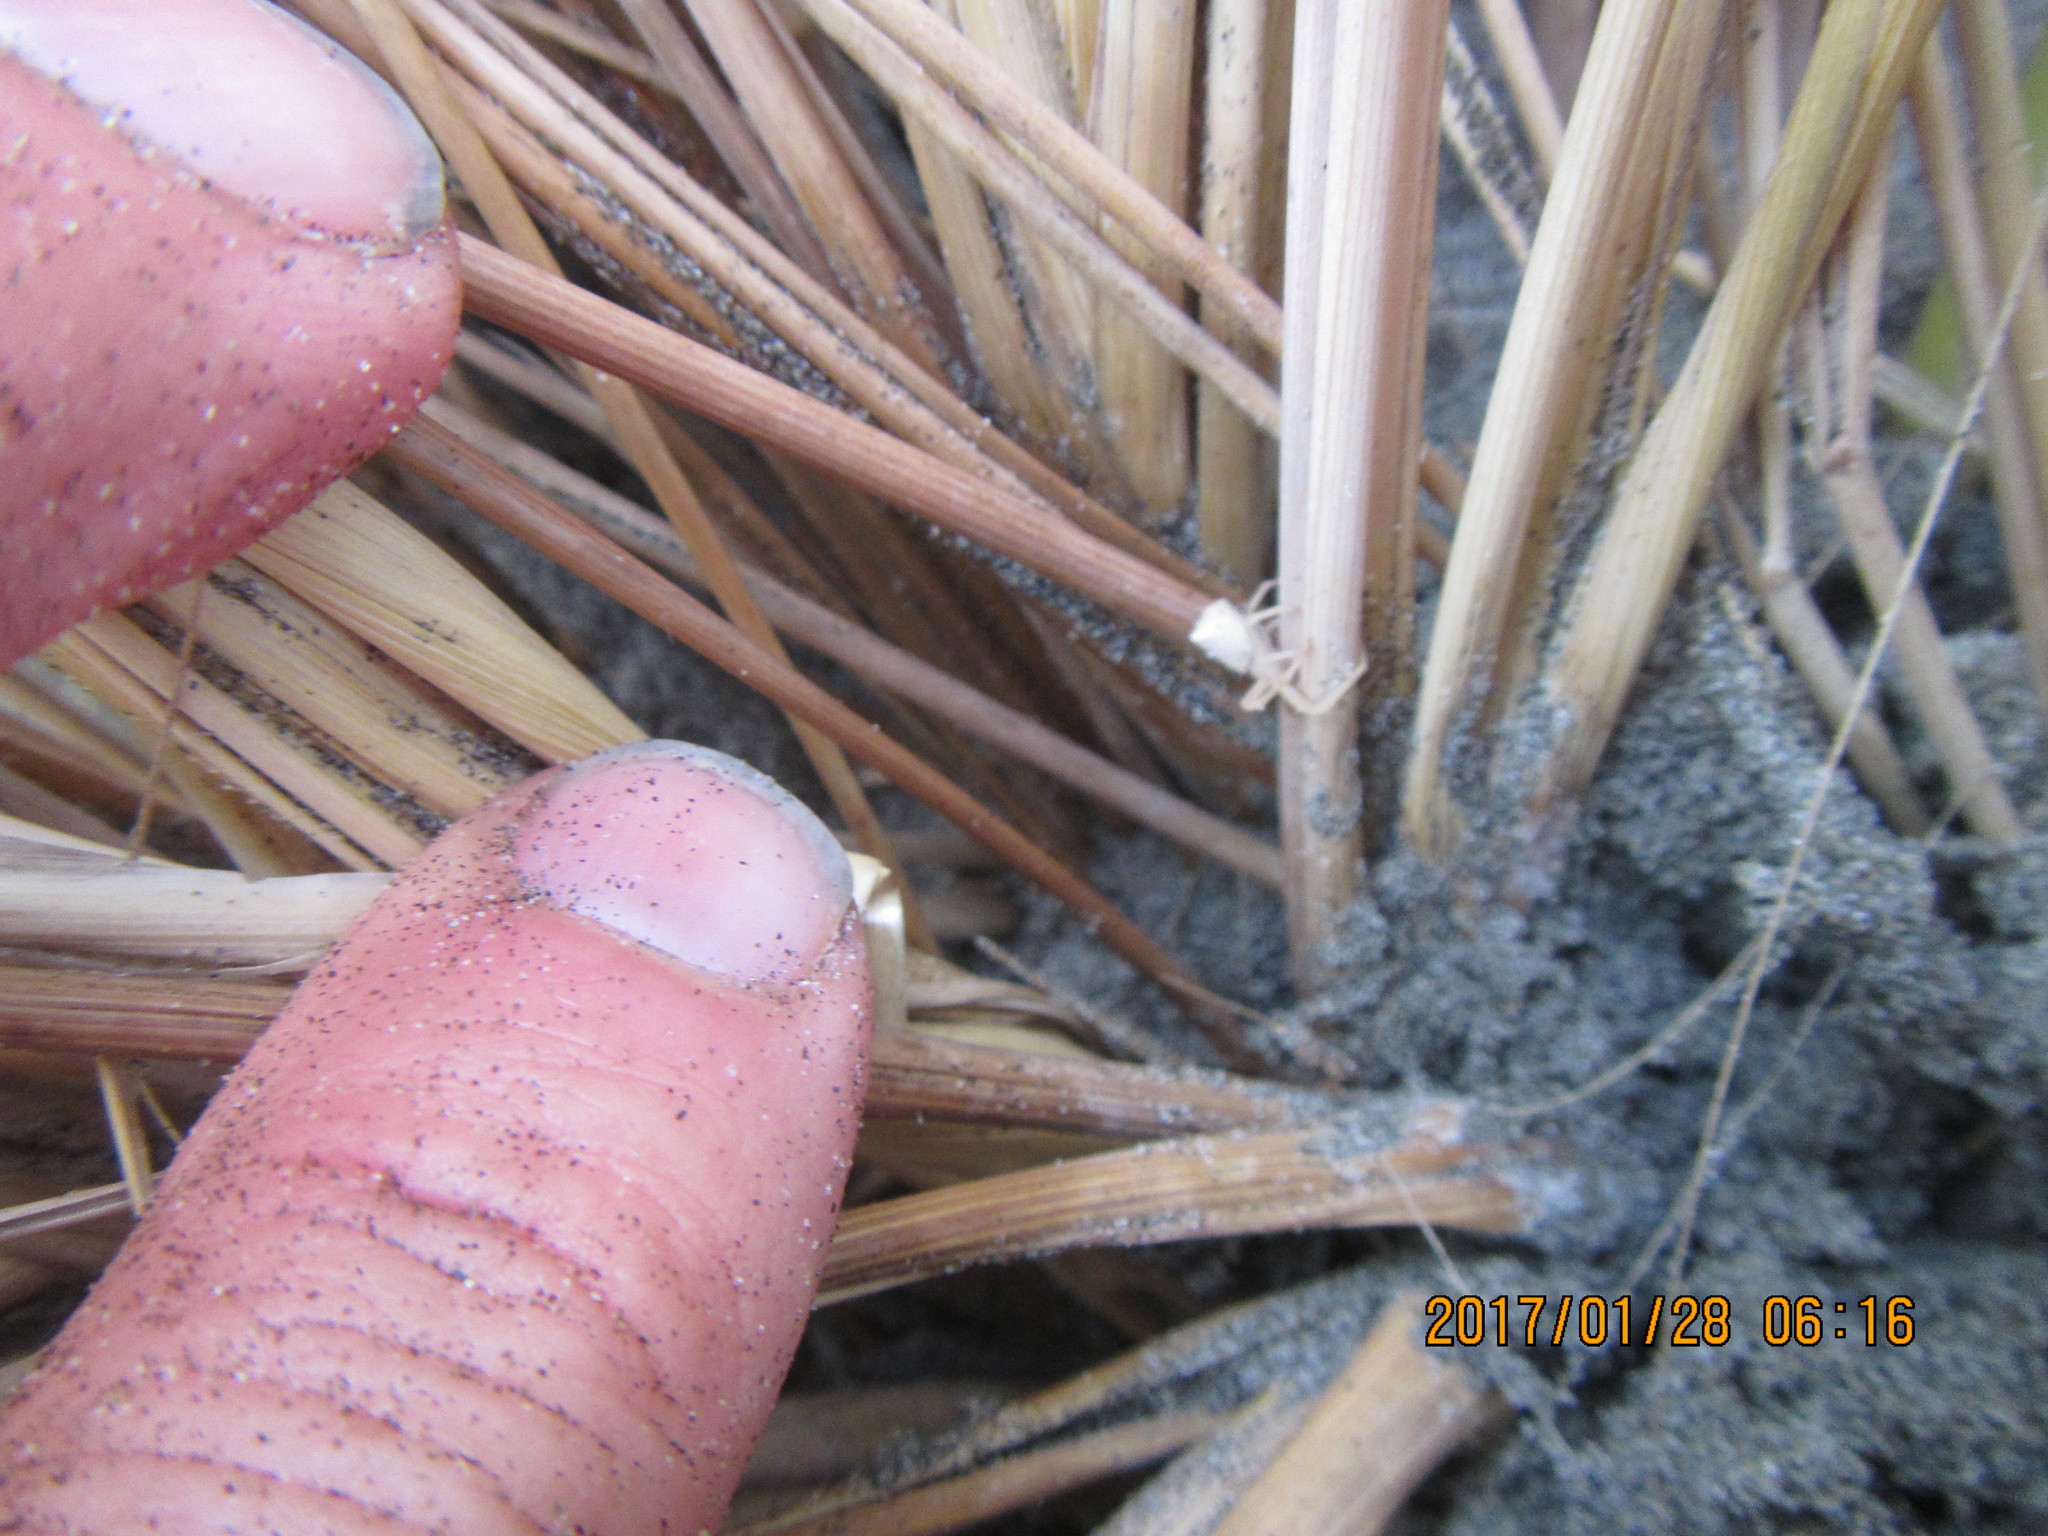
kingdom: Animalia
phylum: Arthropoda
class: Arachnida
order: Araneae
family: Thomisidae
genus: Sidymella
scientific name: Sidymella trapezia
